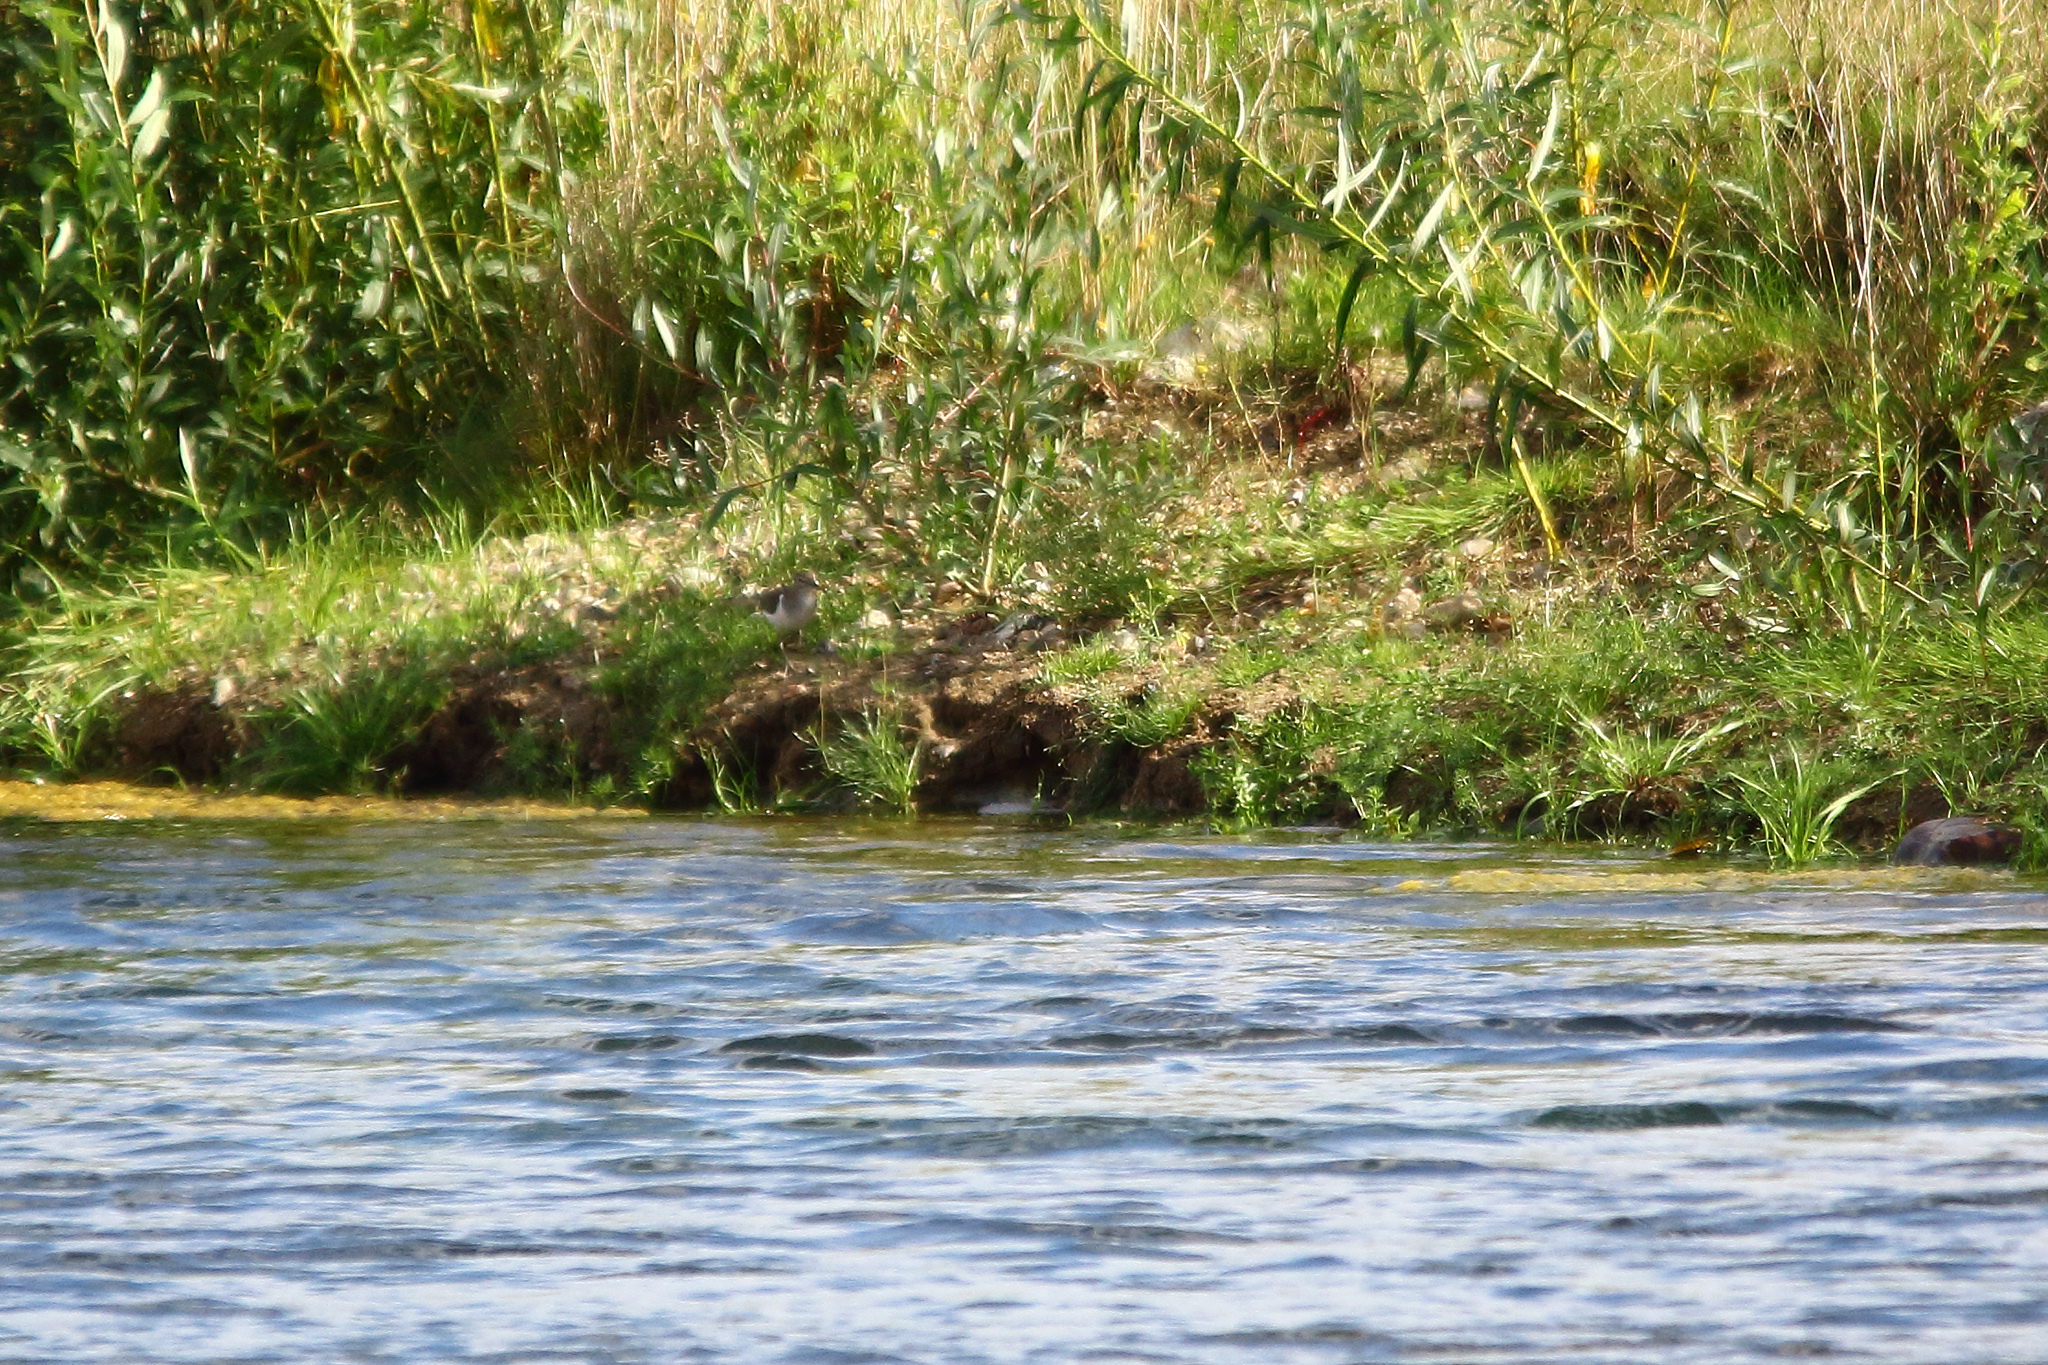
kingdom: Animalia
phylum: Chordata
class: Aves
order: Charadriiformes
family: Scolopacidae
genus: Actitis
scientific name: Actitis hypoleucos
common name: Common sandpiper
